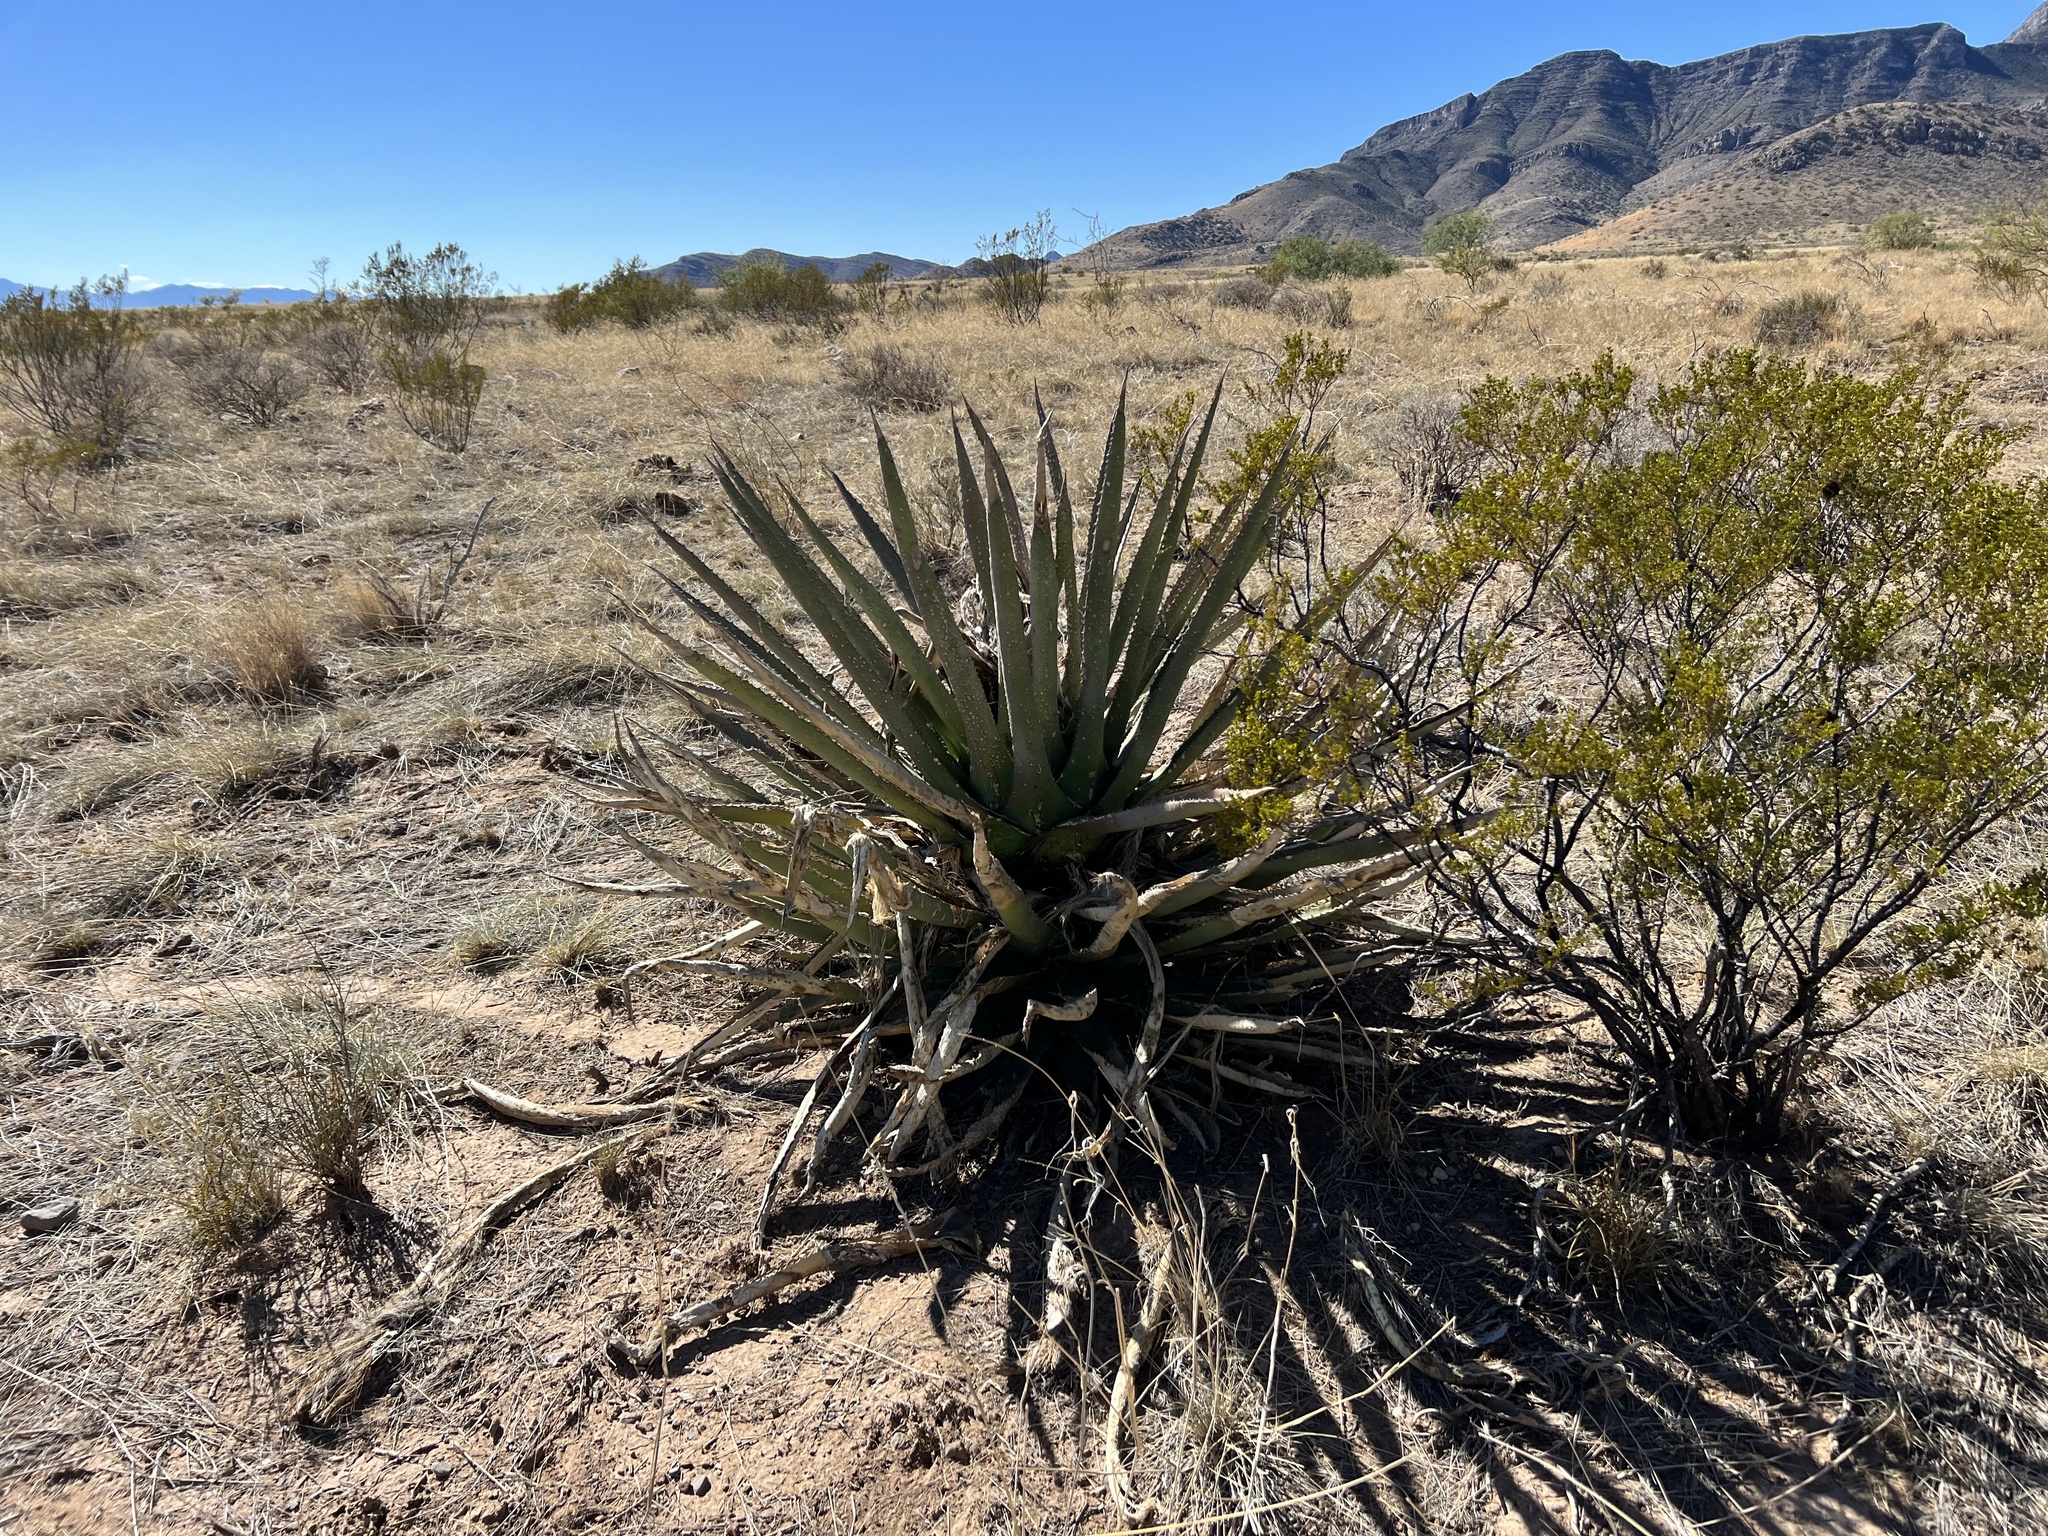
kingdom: Plantae
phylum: Tracheophyta
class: Liliopsida
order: Asparagales
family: Asparagaceae
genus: Agave
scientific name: Agave palmeri
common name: Palmer agave
